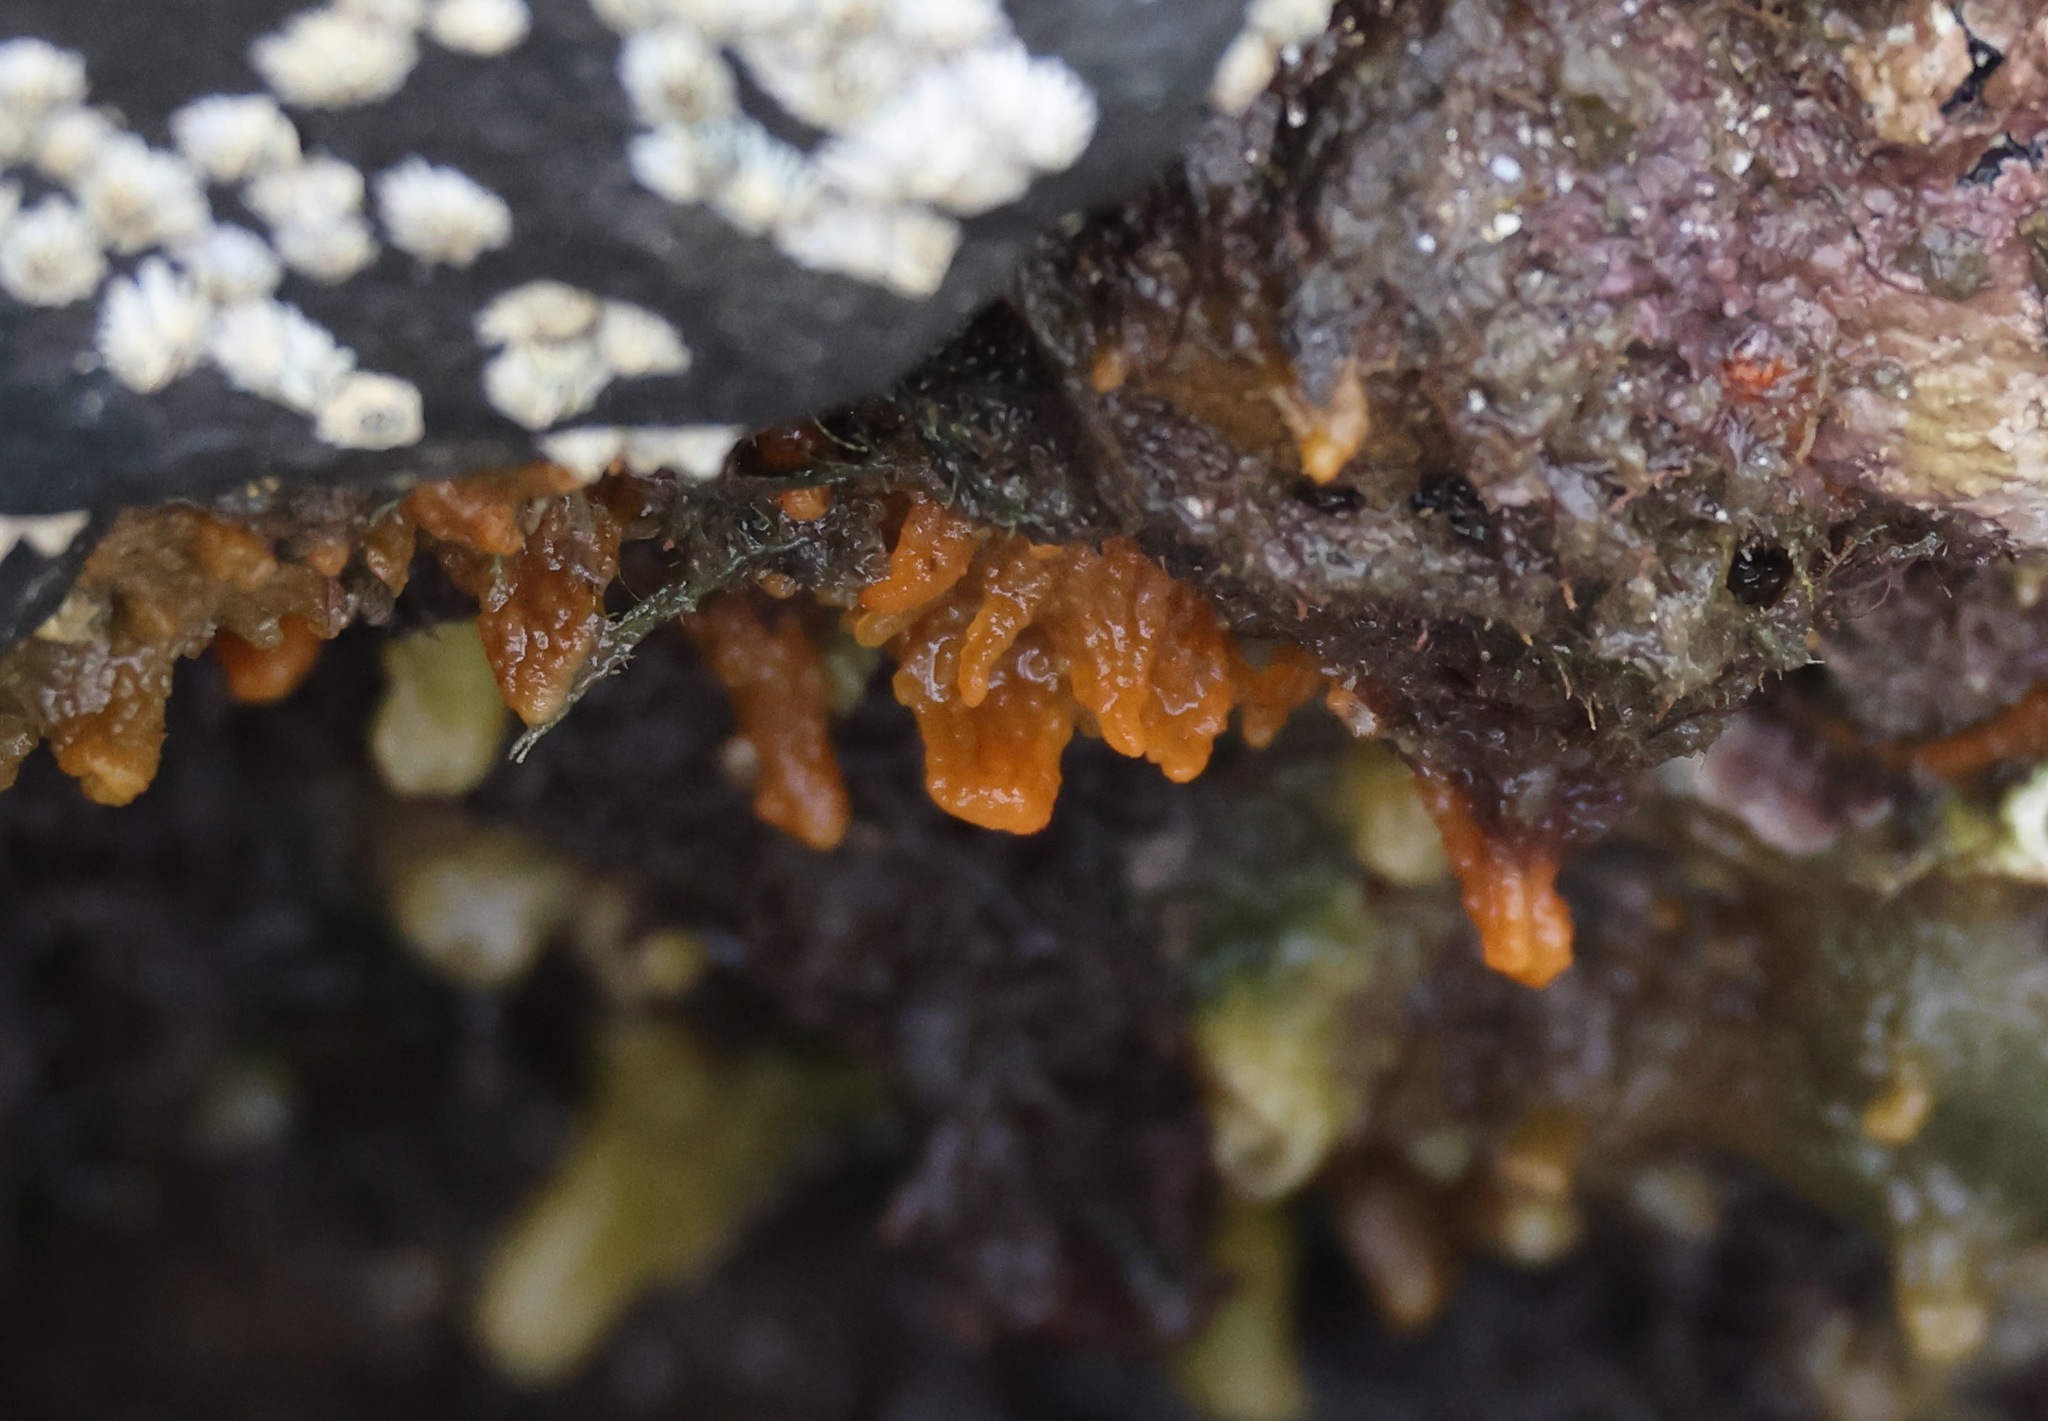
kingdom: Animalia
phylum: Porifera
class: Demospongiae
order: Suberitida
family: Halichondriidae
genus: Hymeniacidon
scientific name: Hymeniacidon perlevis
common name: Crumb-of-bread sponge
